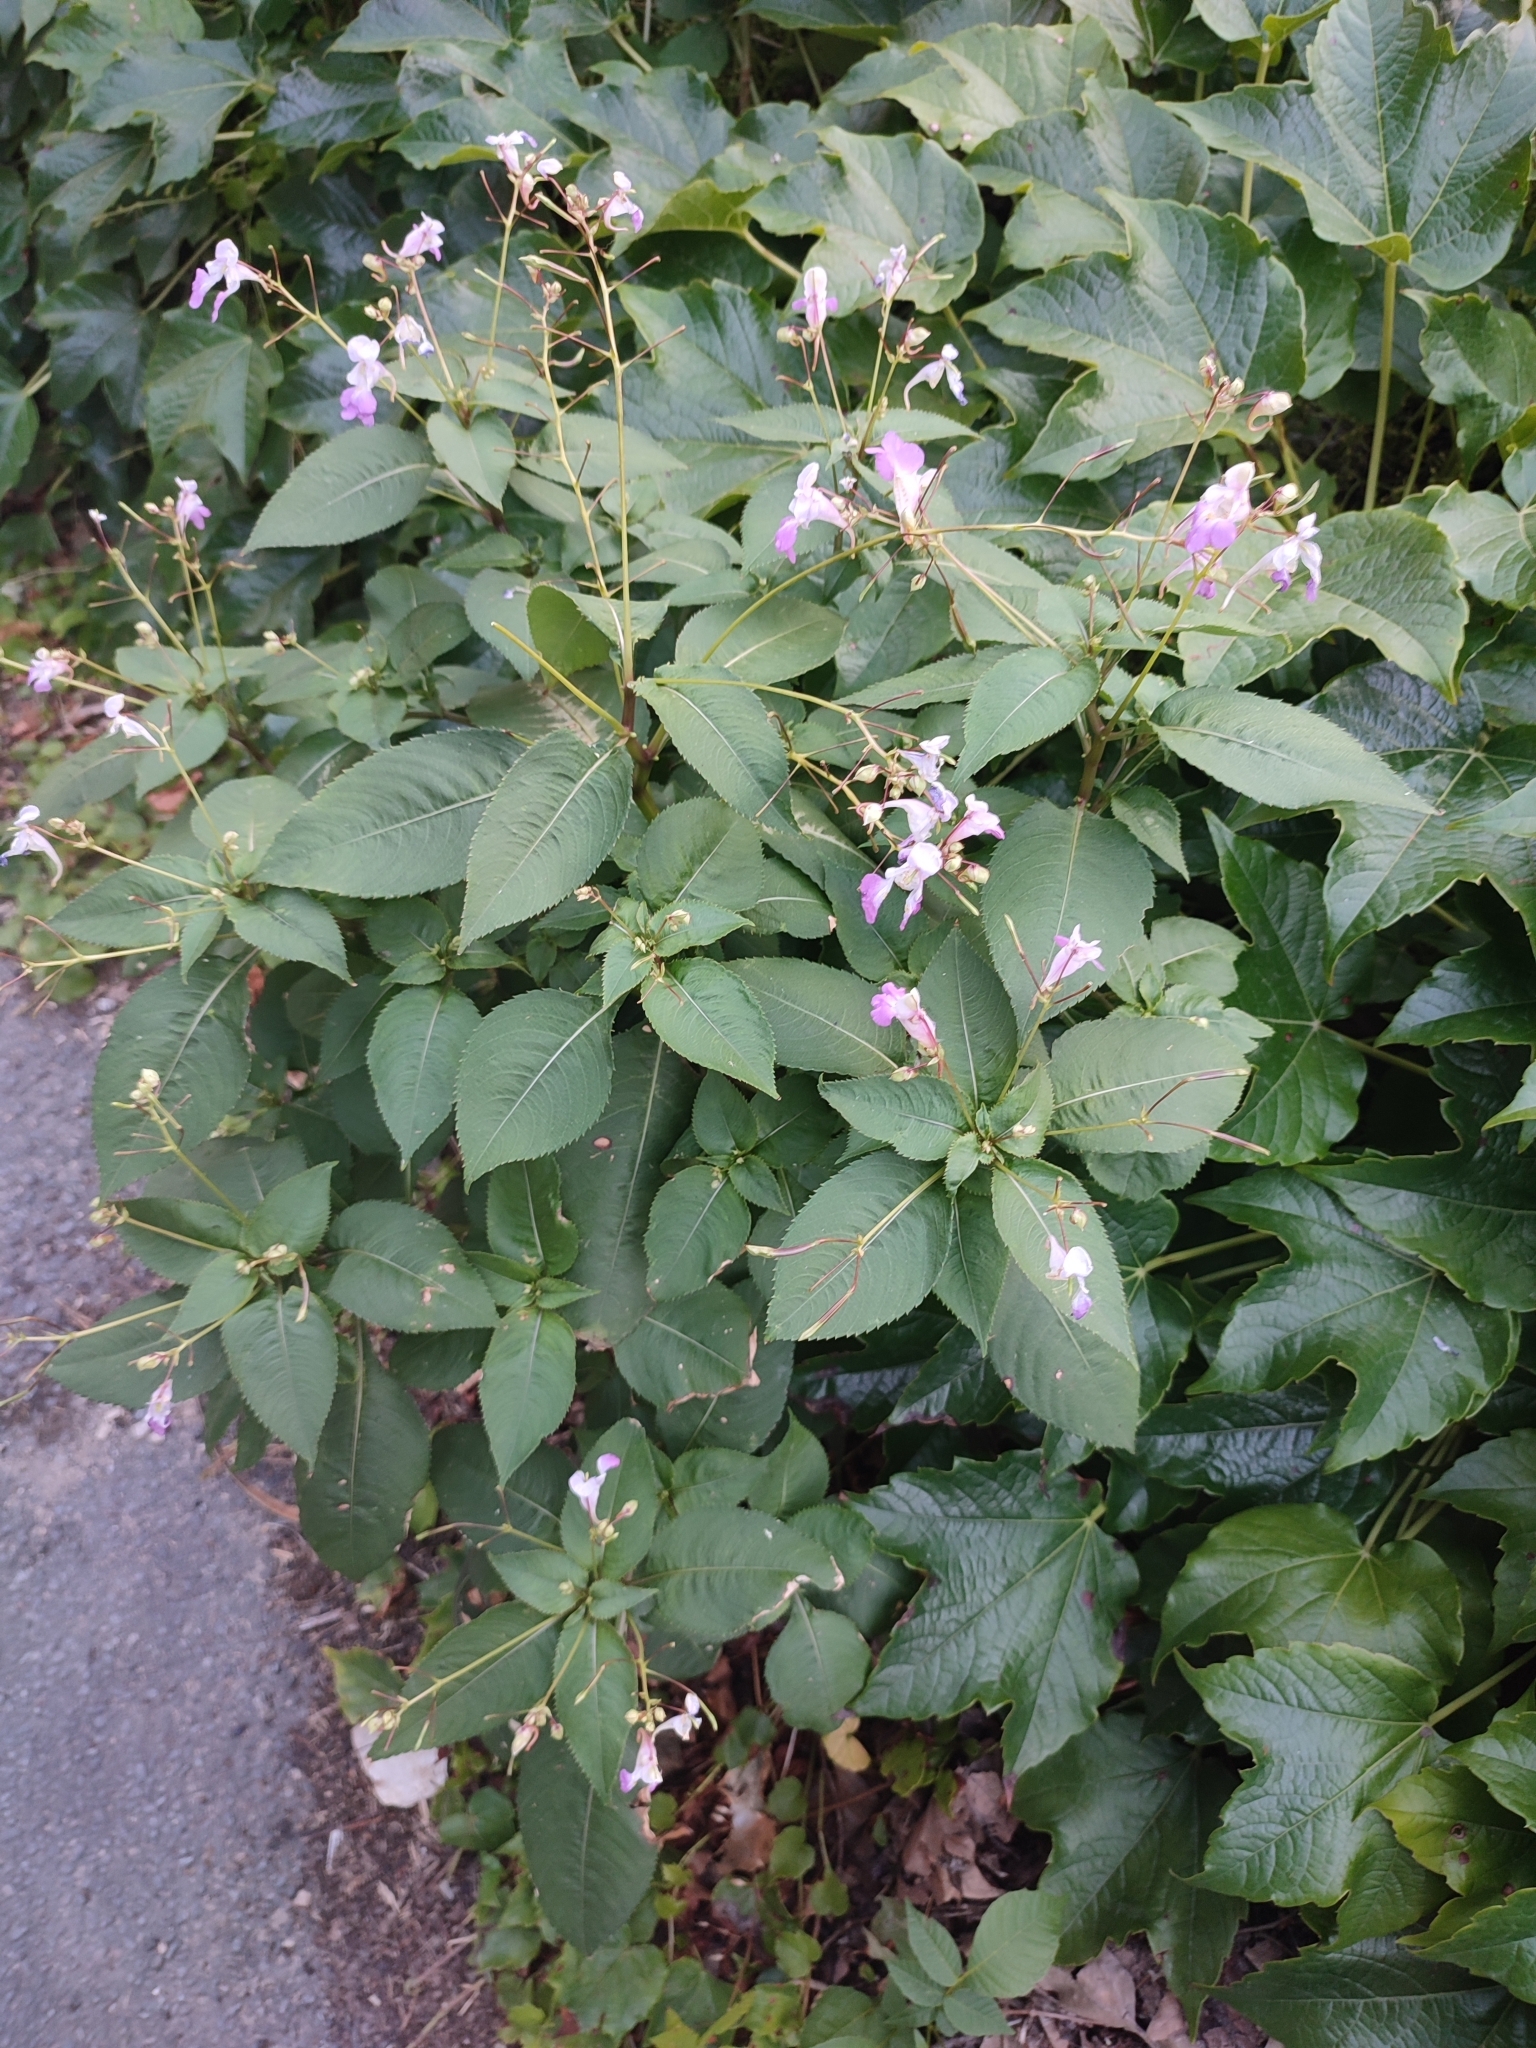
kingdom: Plantae
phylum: Tracheophyta
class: Magnoliopsida
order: Ericales
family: Balsaminaceae
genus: Impatiens
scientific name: Impatiens balfourii
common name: Balfour's touch-me-not
